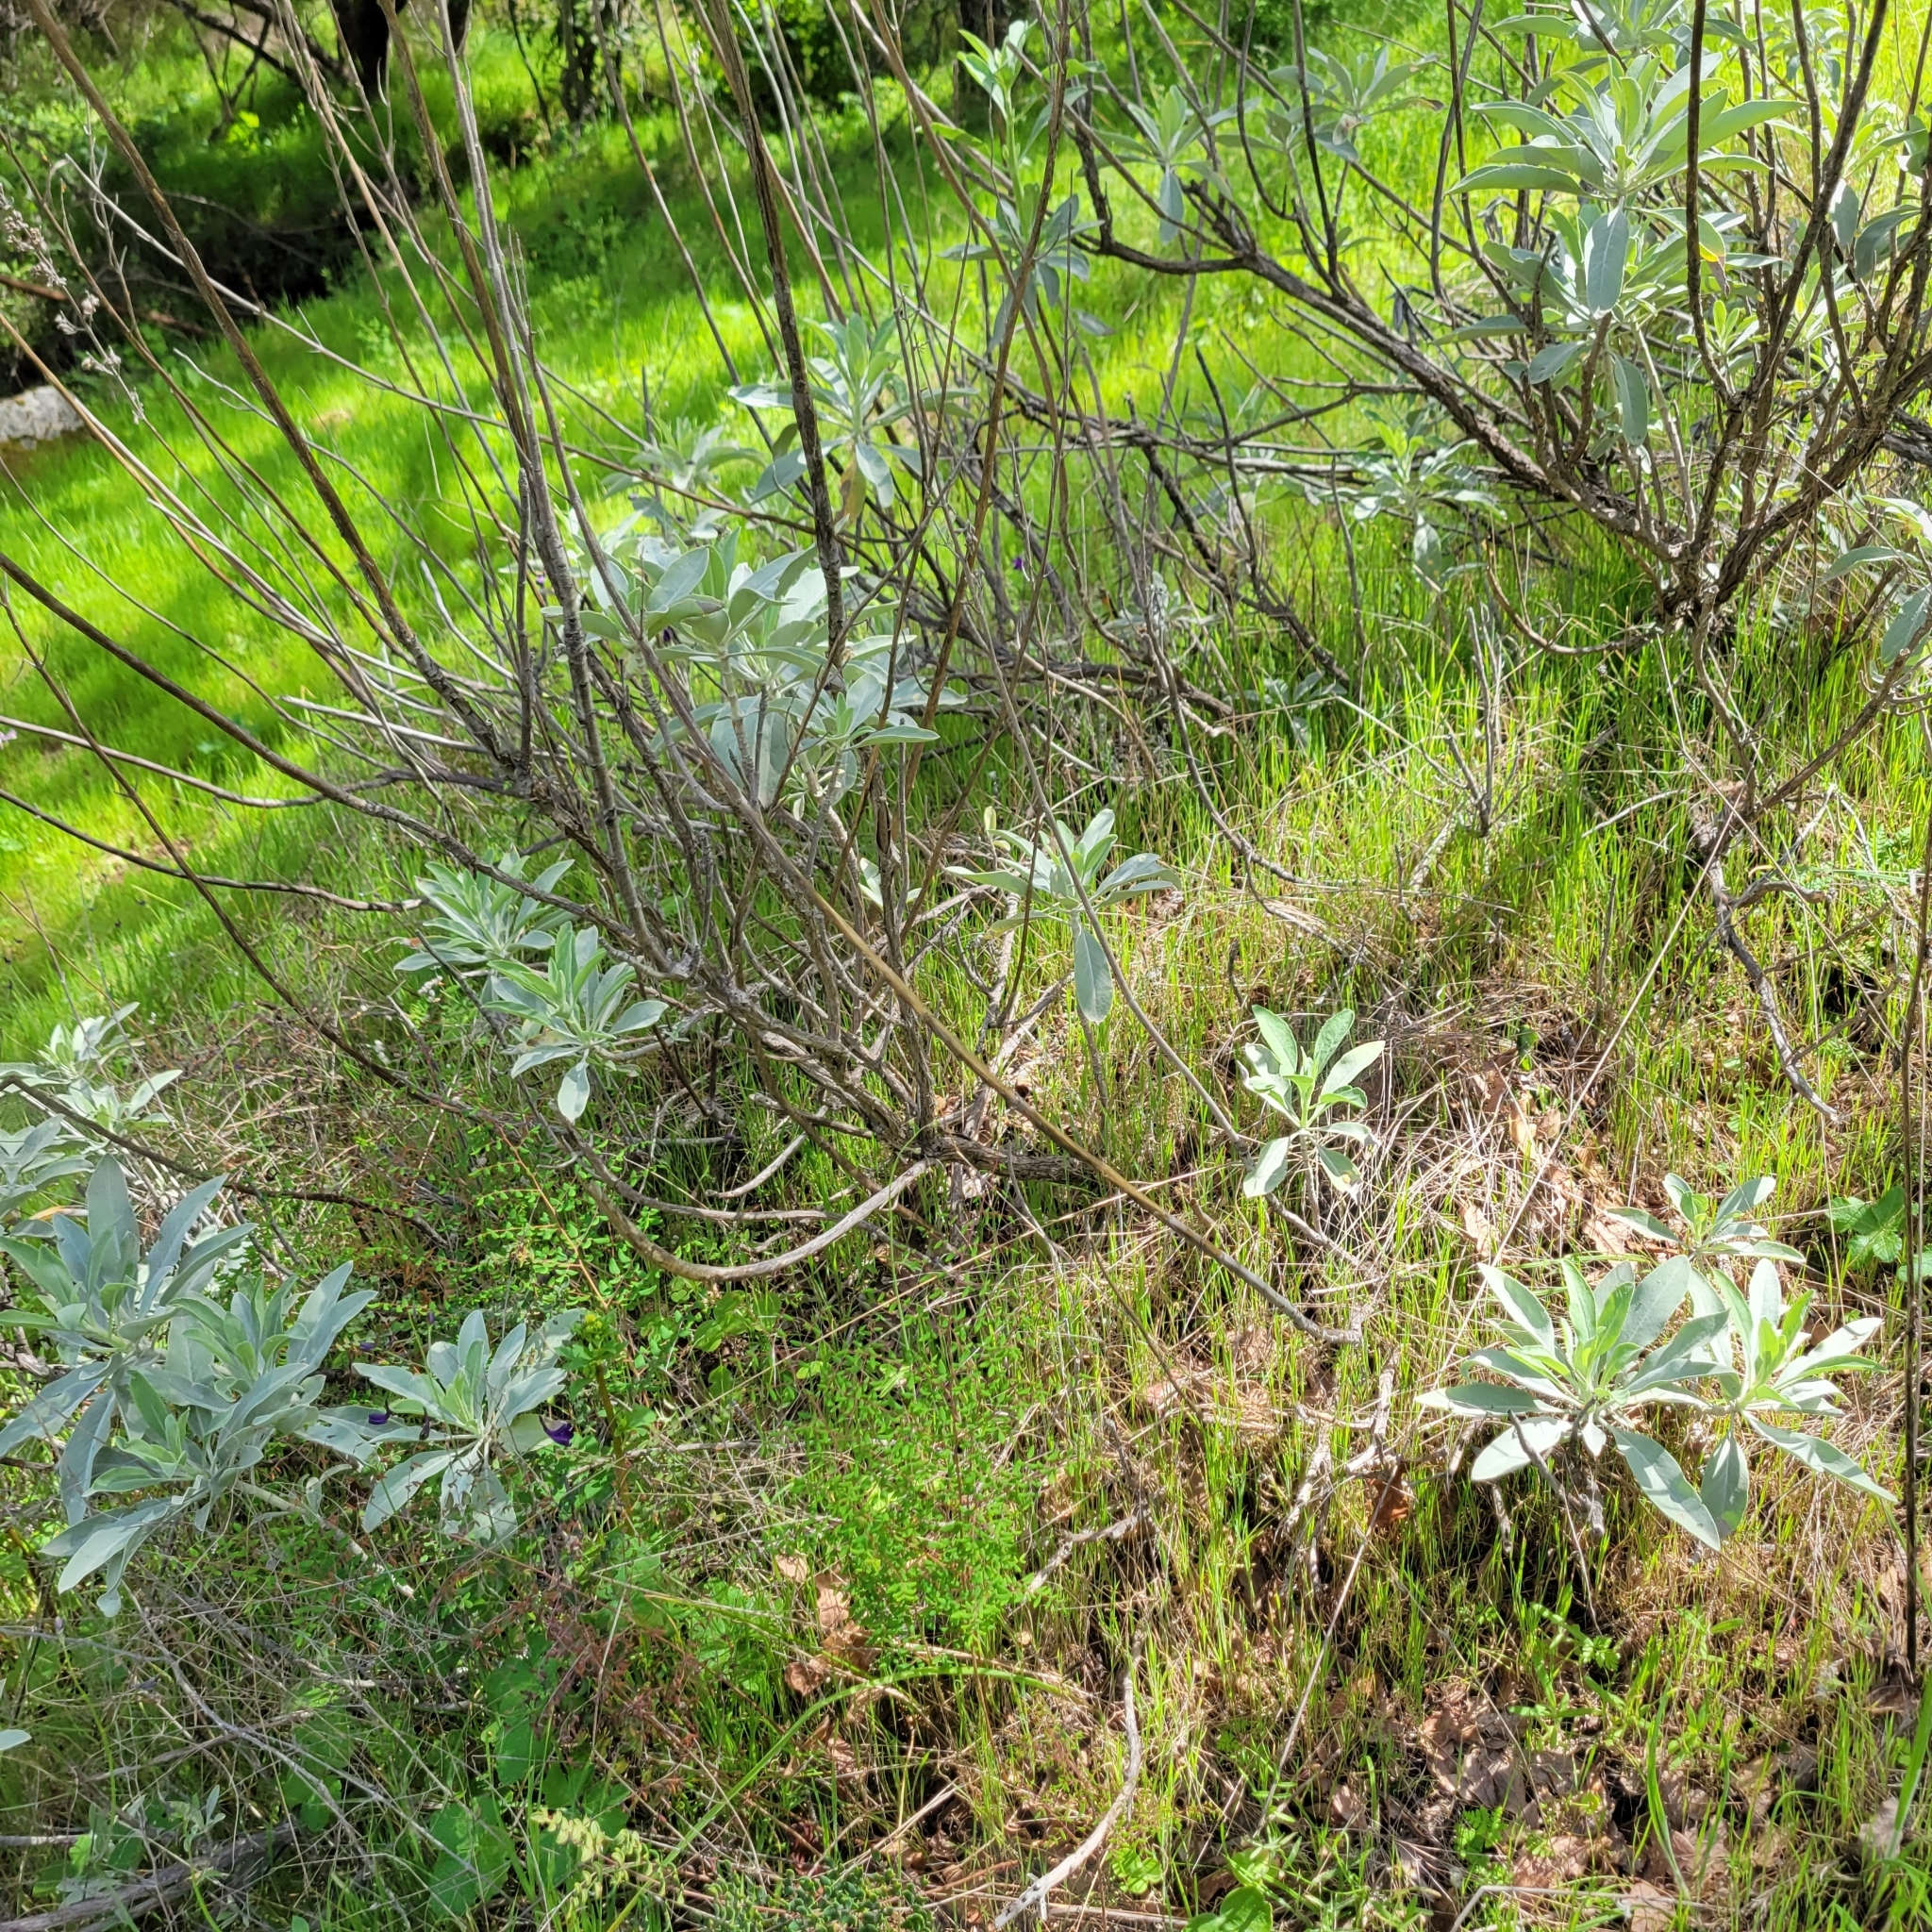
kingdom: Plantae
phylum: Tracheophyta
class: Magnoliopsida
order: Lamiales
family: Lamiaceae
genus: Salvia
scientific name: Salvia apiana
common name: White sage
